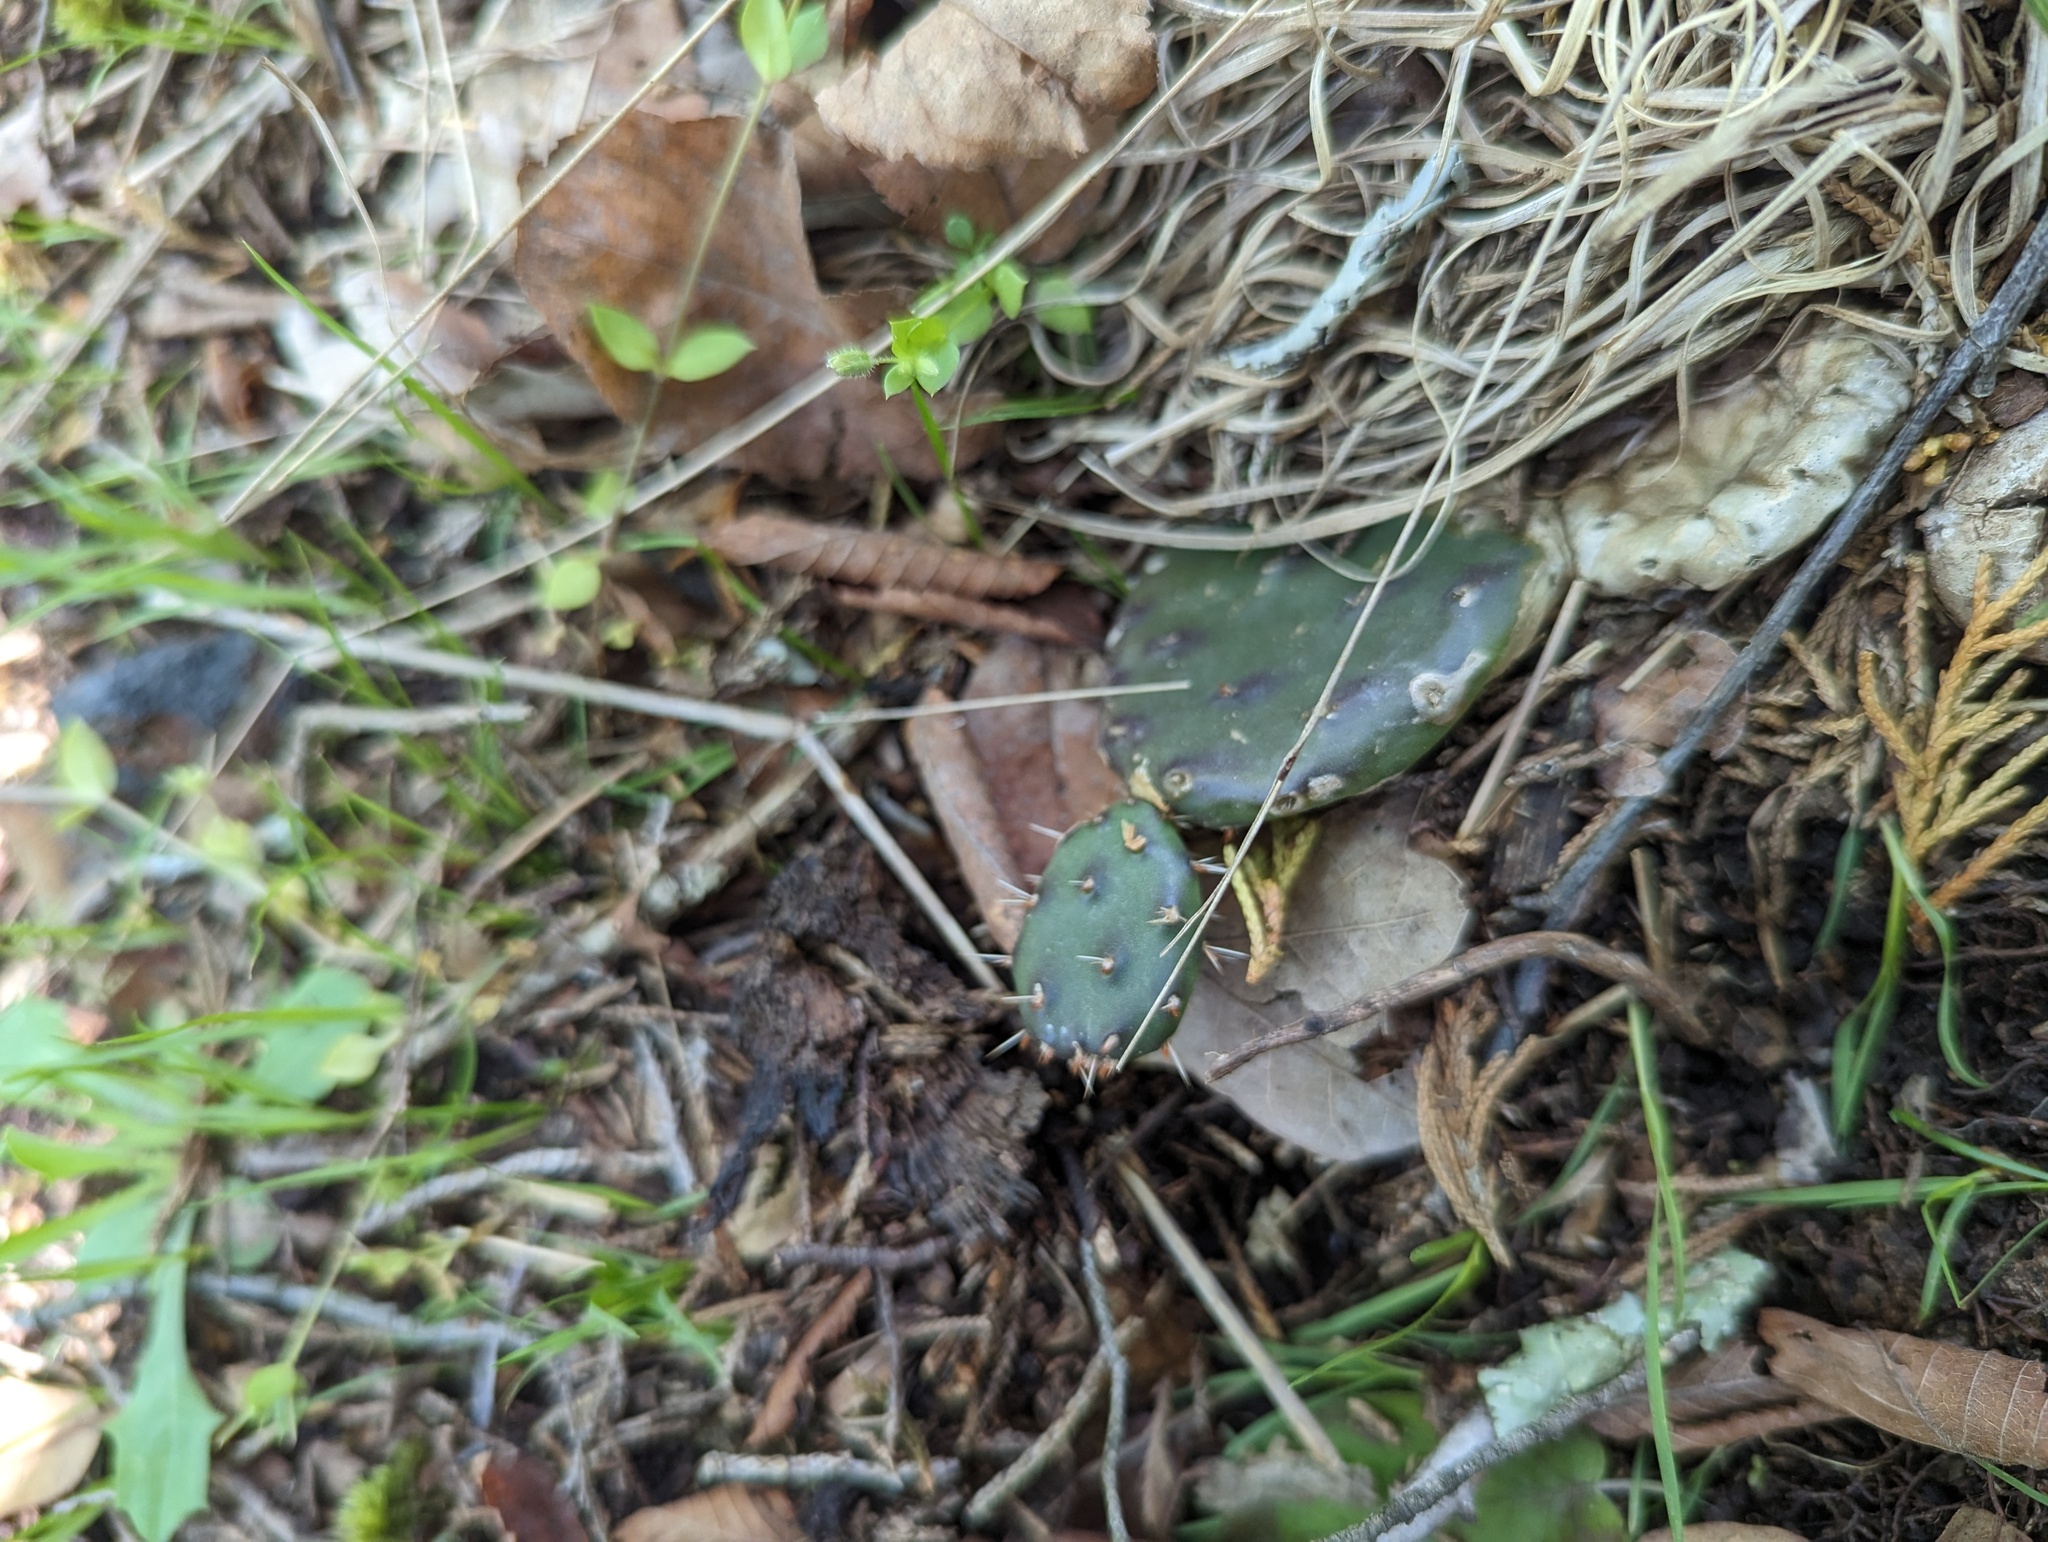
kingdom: Plantae
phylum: Tracheophyta
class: Magnoliopsida
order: Caryophyllales
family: Cactaceae
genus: Opuntia
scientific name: Opuntia humifusa
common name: Eastern prickly-pear
